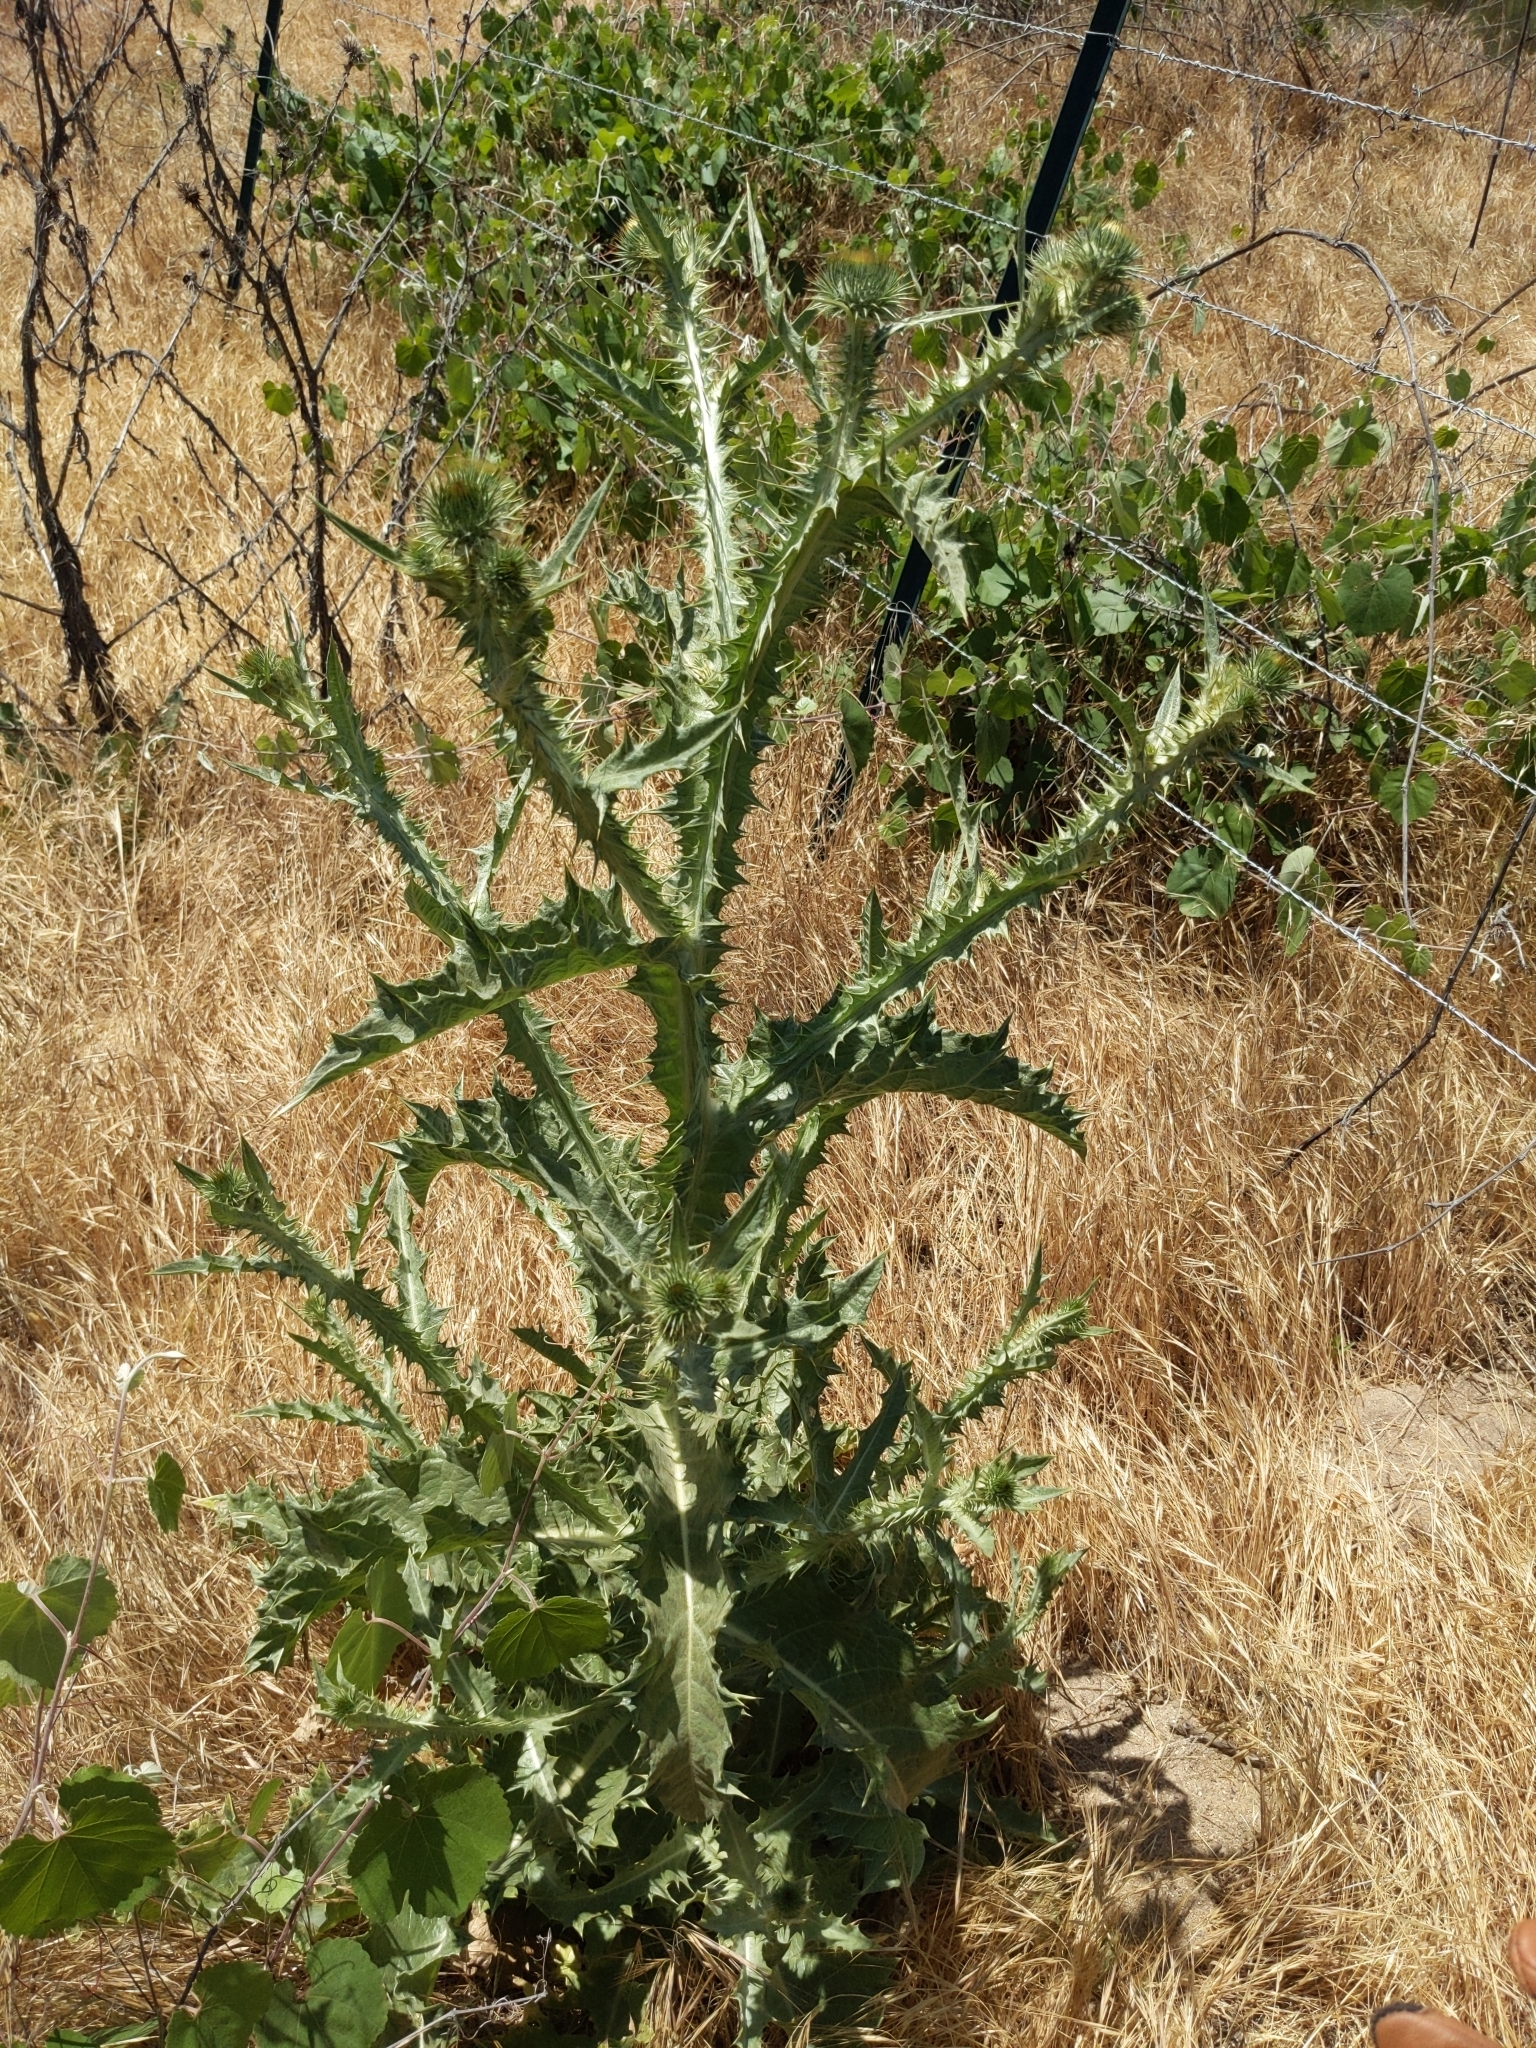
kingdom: Plantae
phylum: Tracheophyta
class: Magnoliopsida
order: Asterales
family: Asteraceae
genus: Onopordum
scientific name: Onopordum acanthium
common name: Scotch thistle
